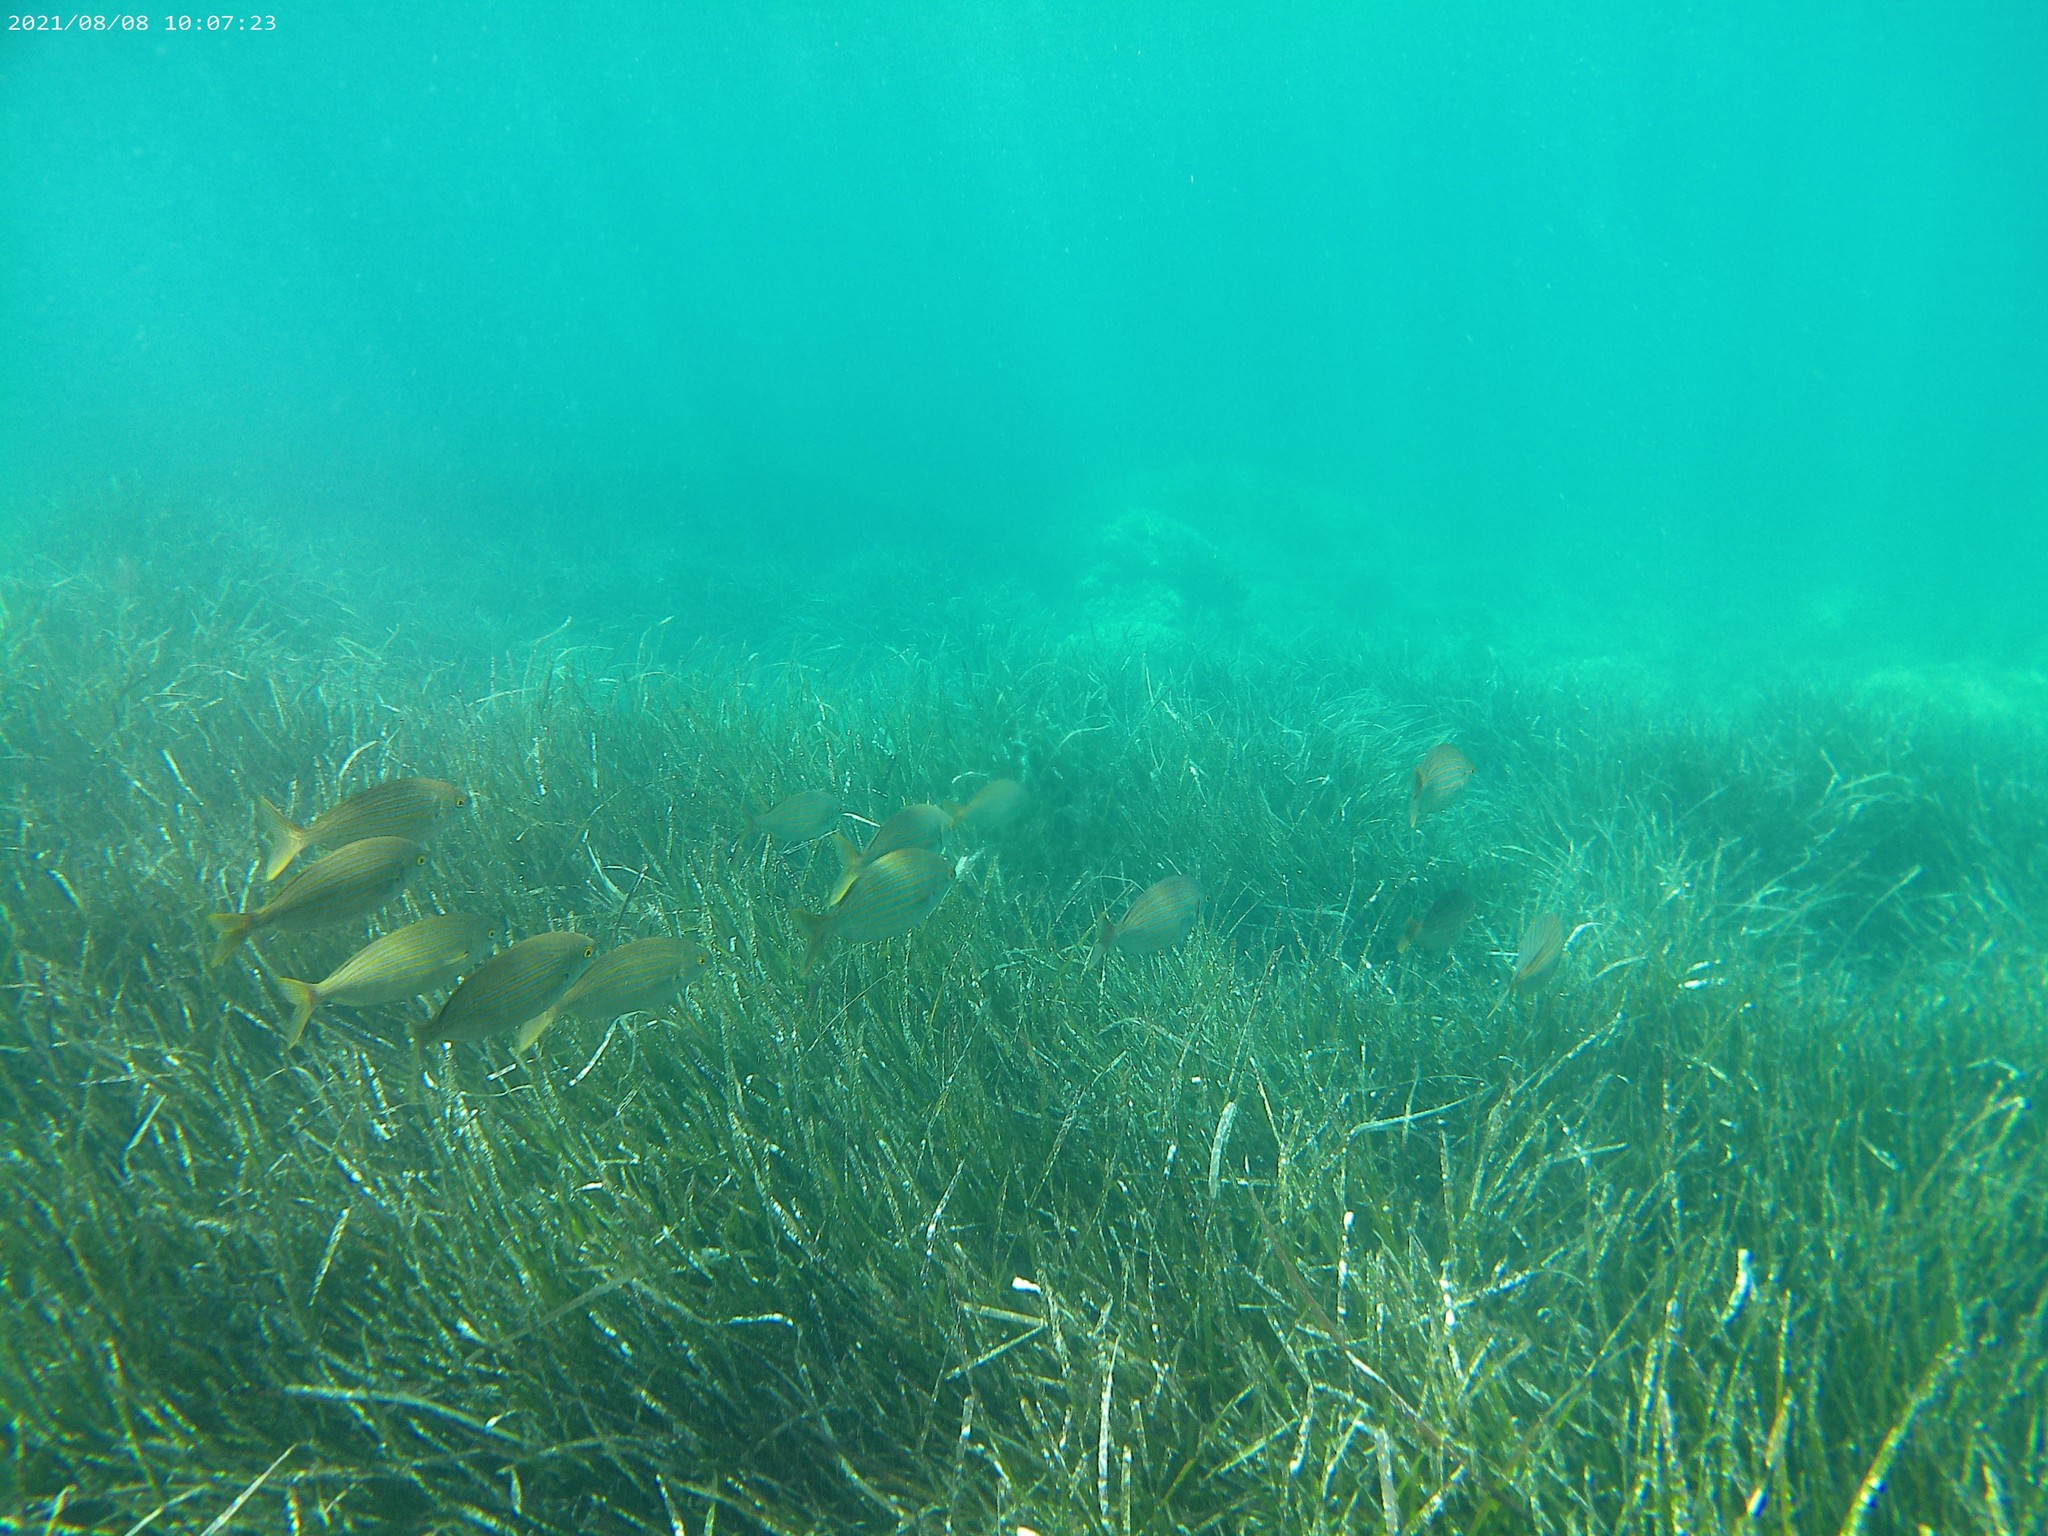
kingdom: Animalia
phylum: Chordata
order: Perciformes
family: Sparidae
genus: Sarpa
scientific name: Sarpa salpa
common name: Salema
